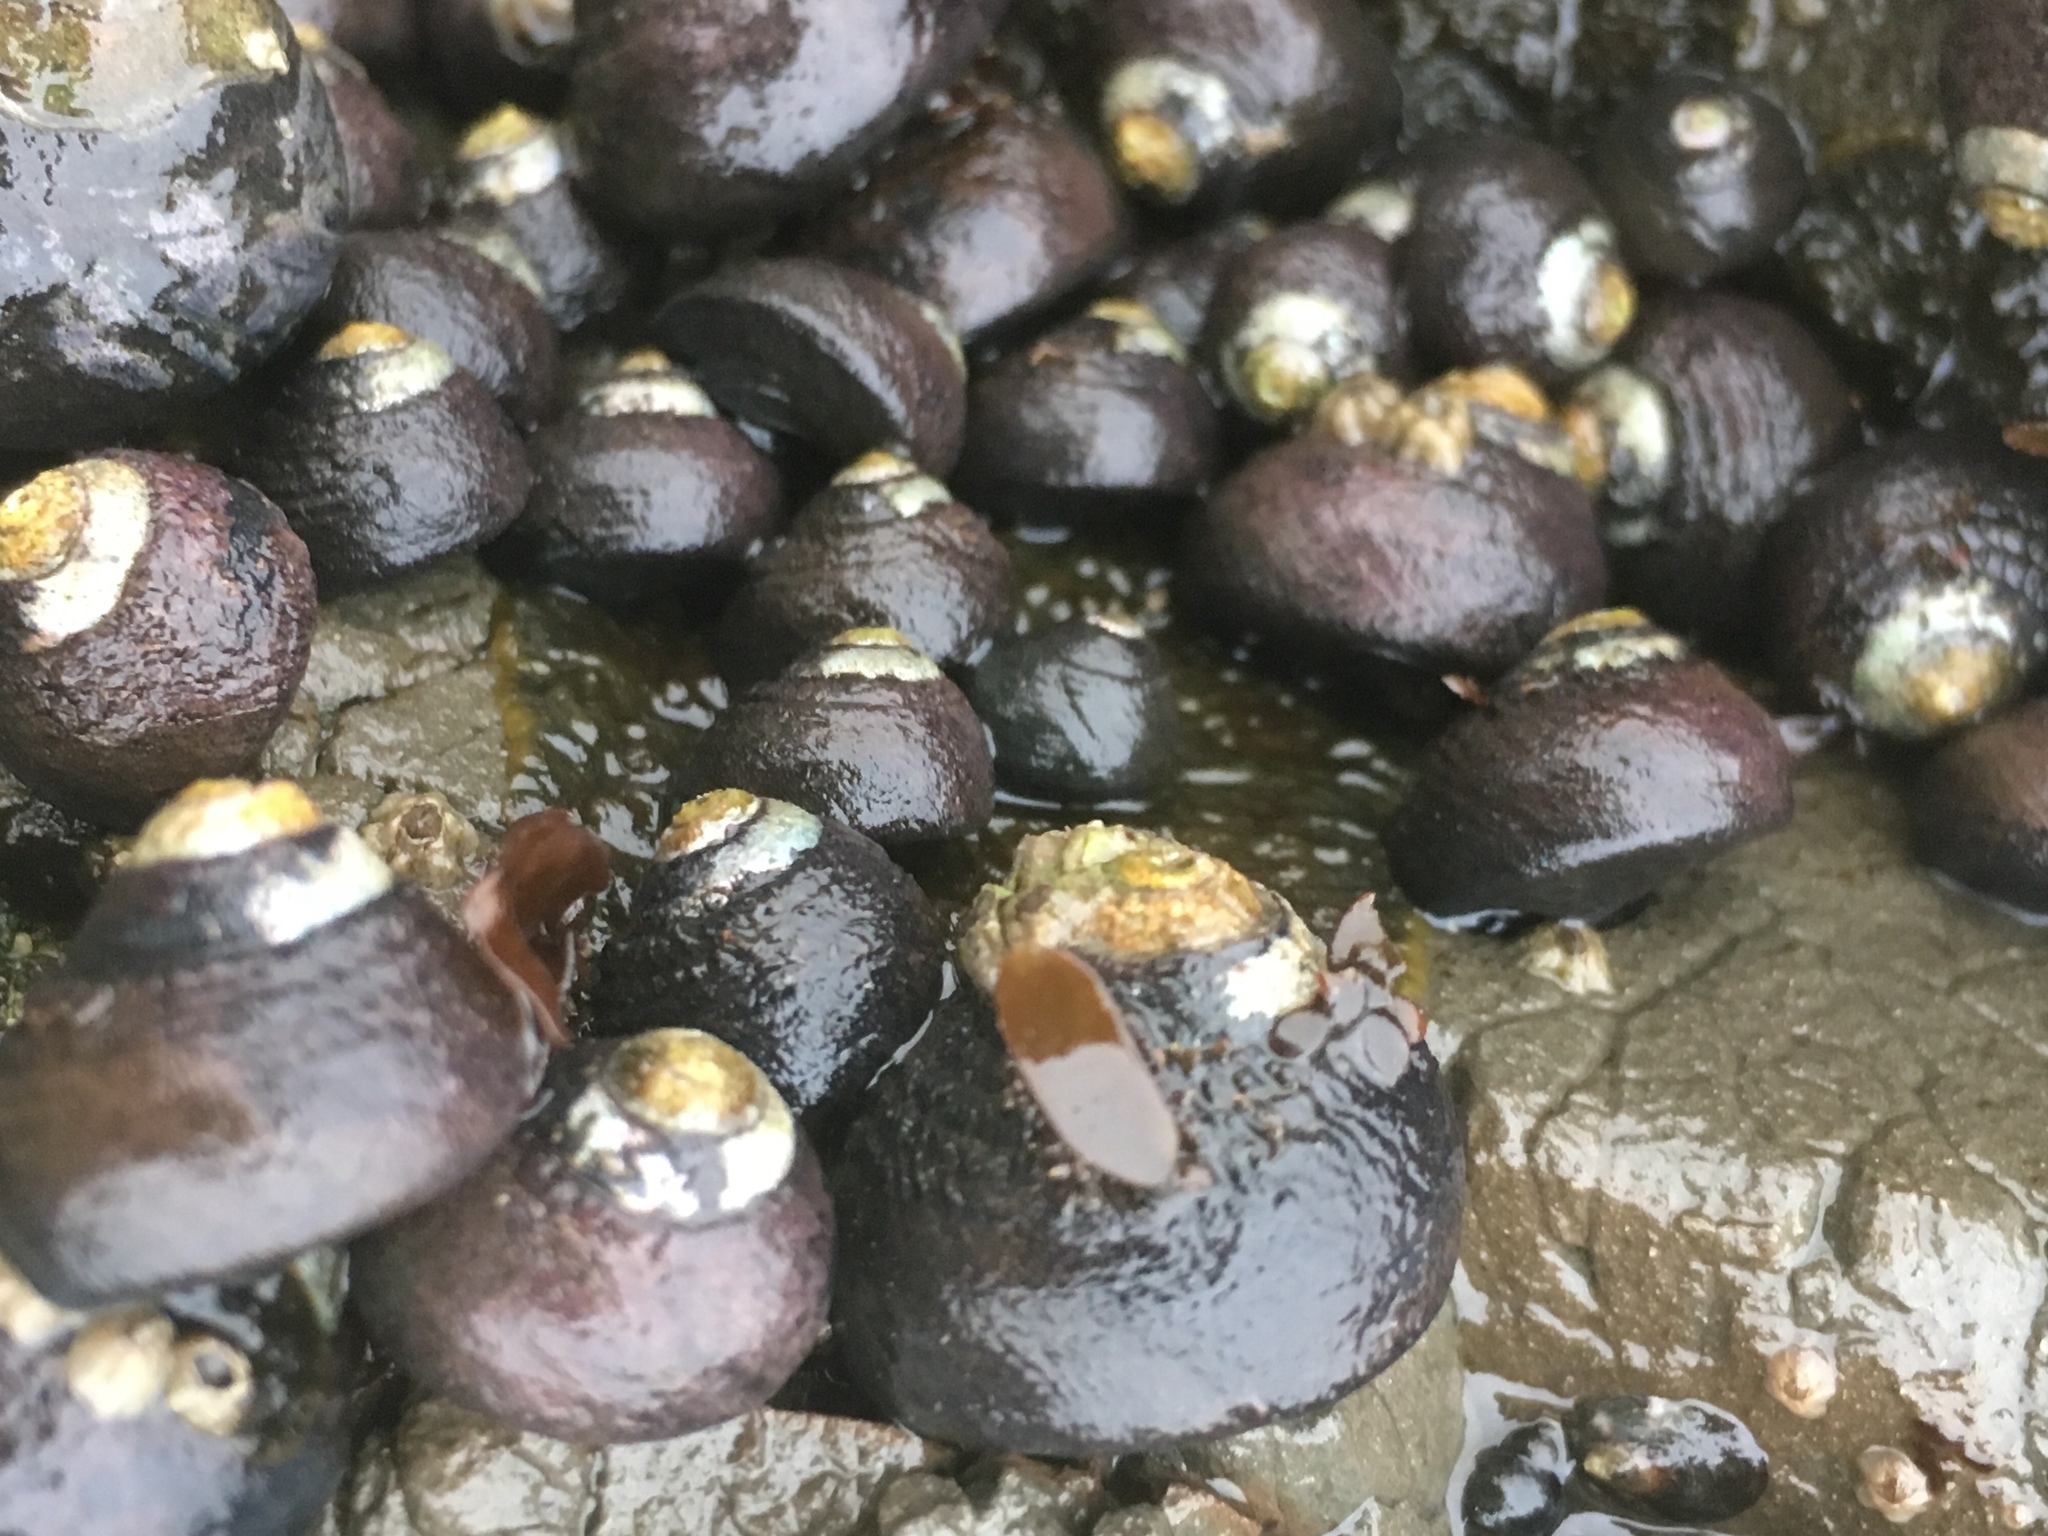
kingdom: Animalia
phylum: Mollusca
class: Gastropoda
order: Trochida
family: Tegulidae
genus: Tegula
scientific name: Tegula funebralis
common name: Black tegula
